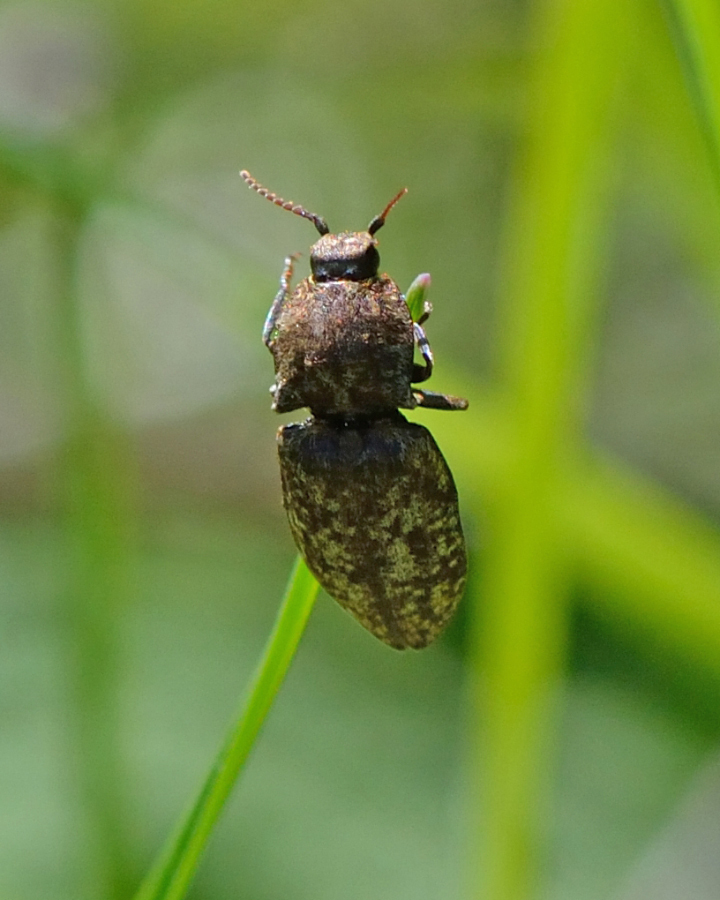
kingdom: Animalia
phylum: Arthropoda
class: Insecta
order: Coleoptera
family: Elateridae
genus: Agrypnus
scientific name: Agrypnus murinus
